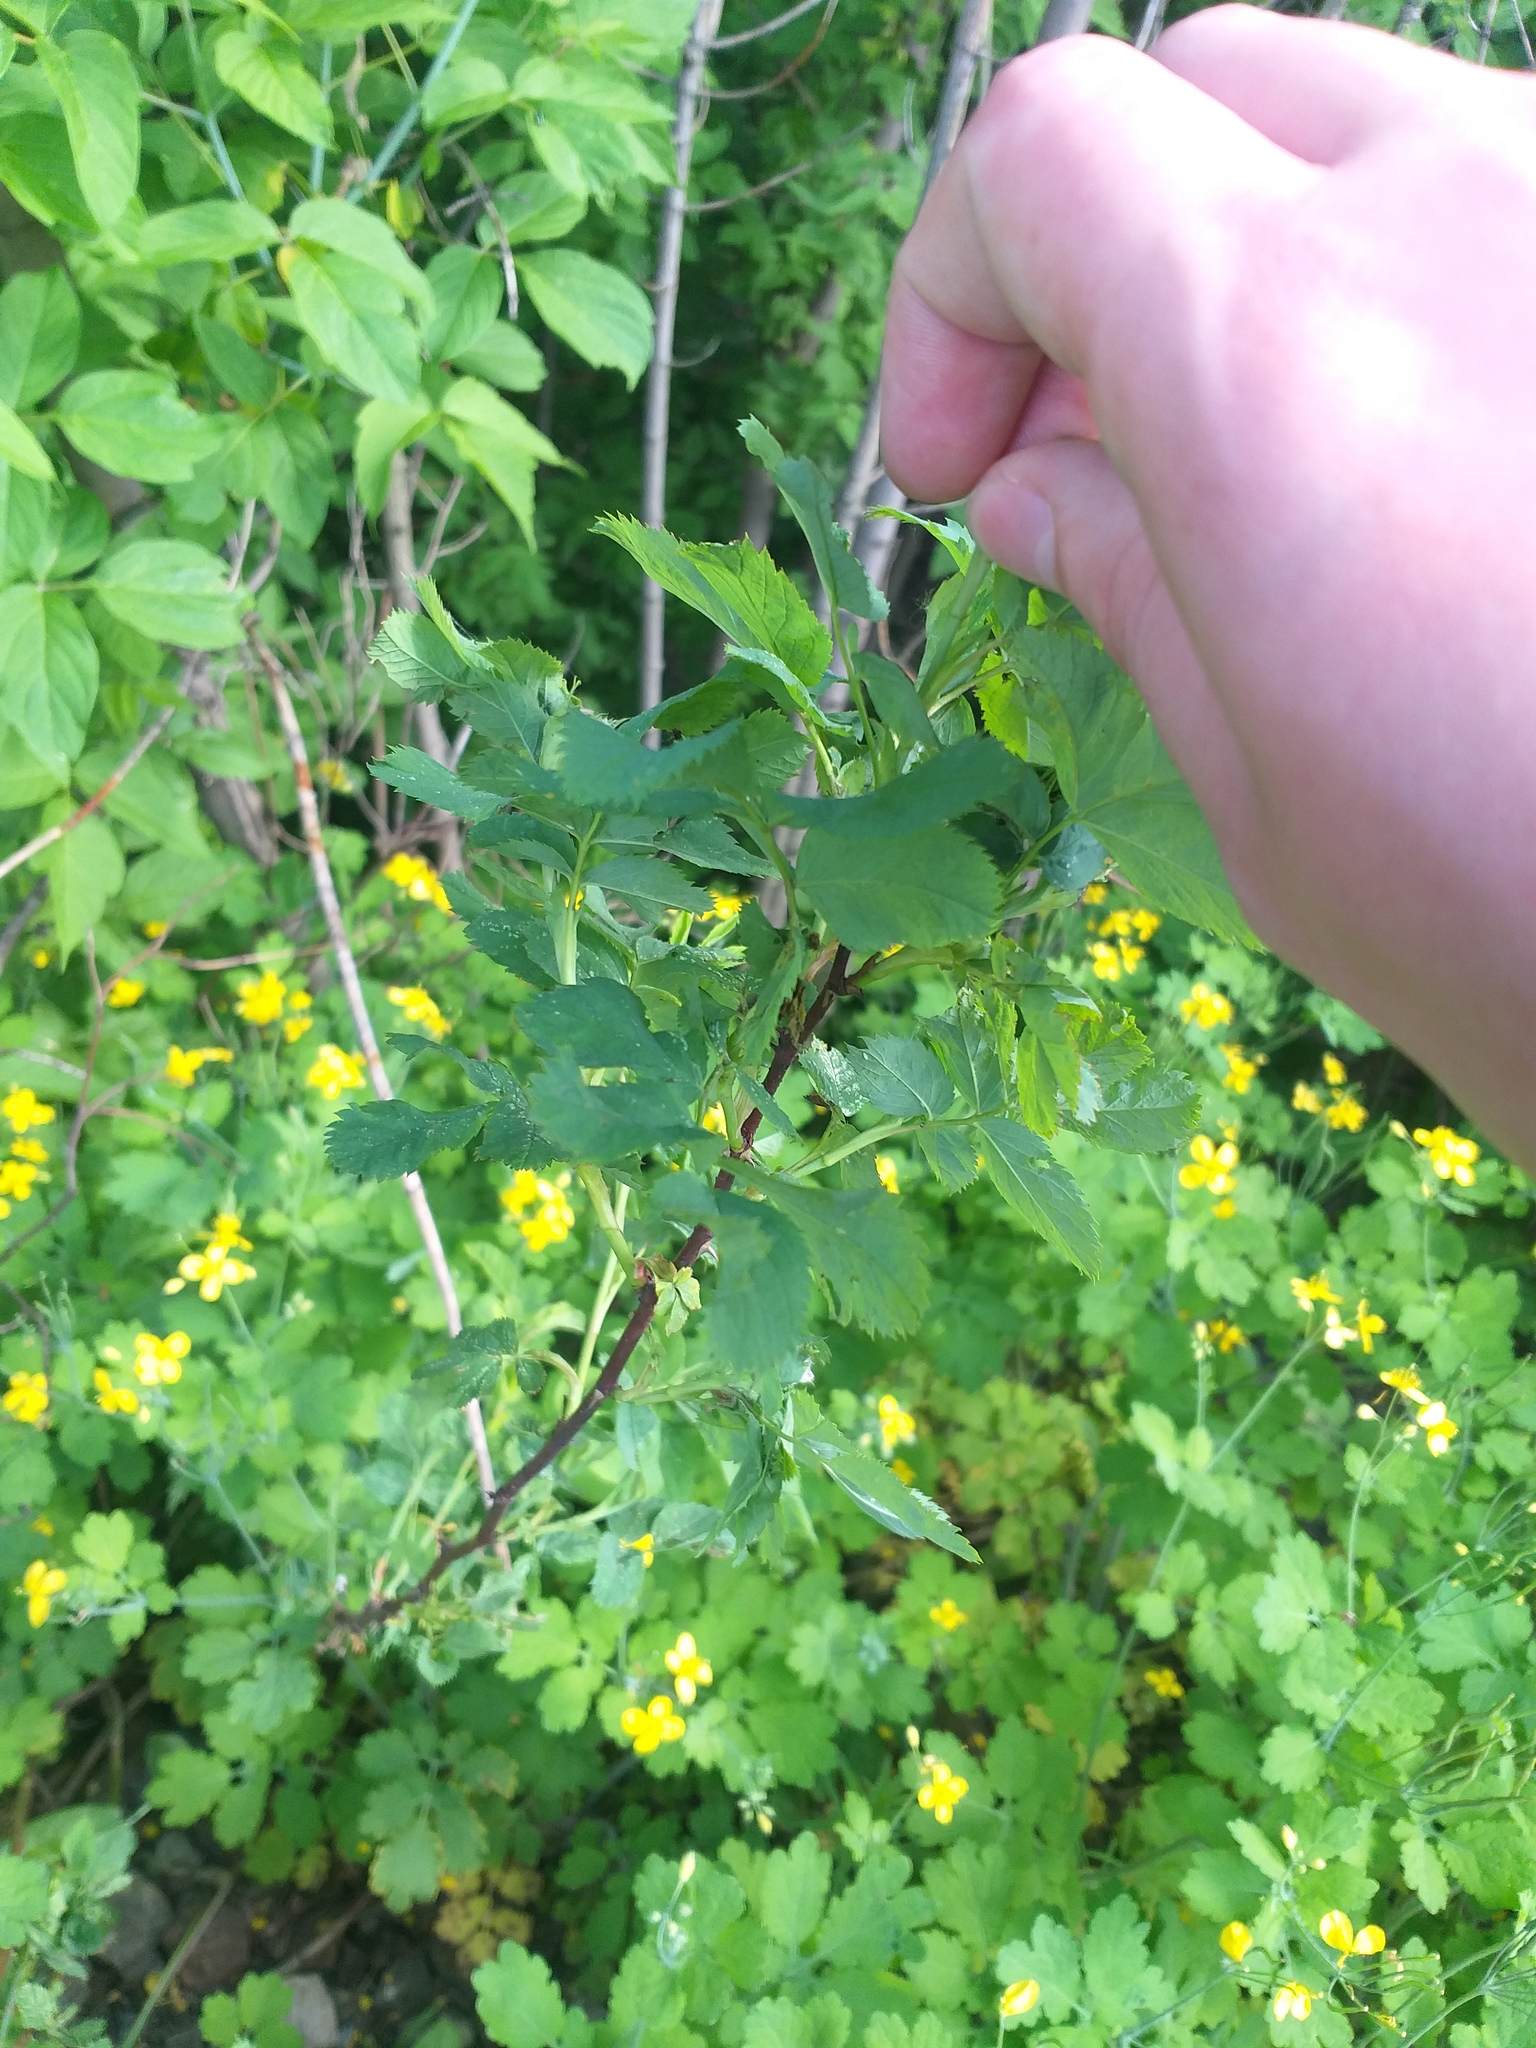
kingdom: Plantae
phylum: Tracheophyta
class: Magnoliopsida
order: Rosales
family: Rosaceae
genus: Rosa
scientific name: Rosa glabrifolia
